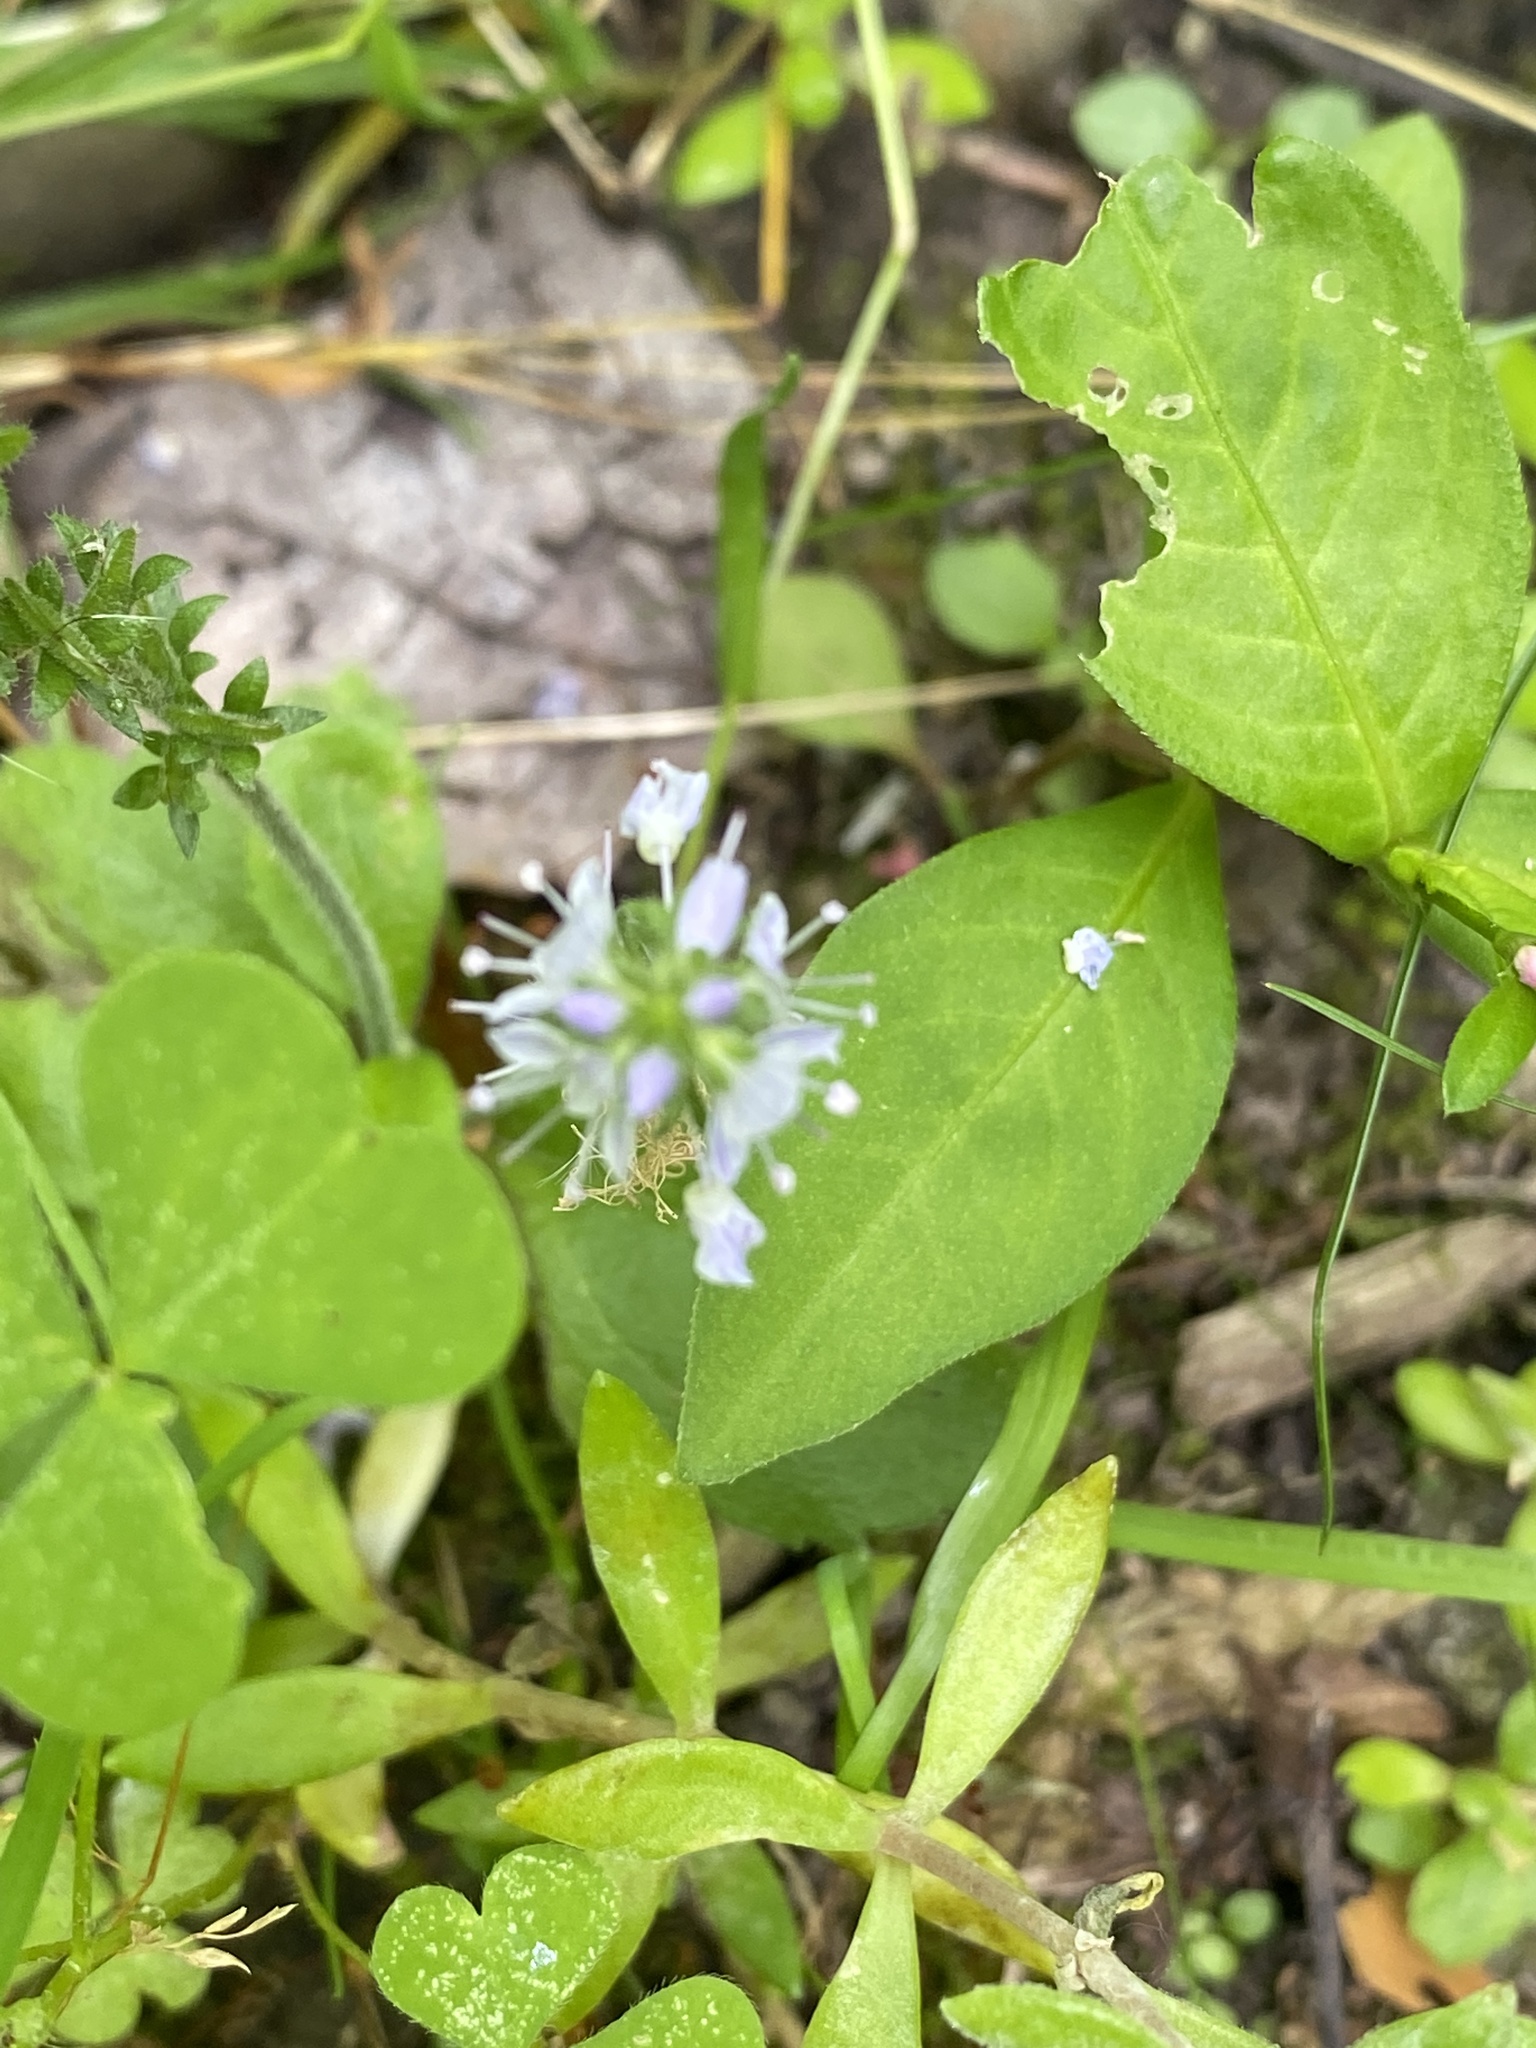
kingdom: Plantae
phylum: Tracheophyta
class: Magnoliopsida
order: Lamiales
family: Plantaginaceae
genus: Veronica
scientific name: Veronica officinalis
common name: Common speedwell
